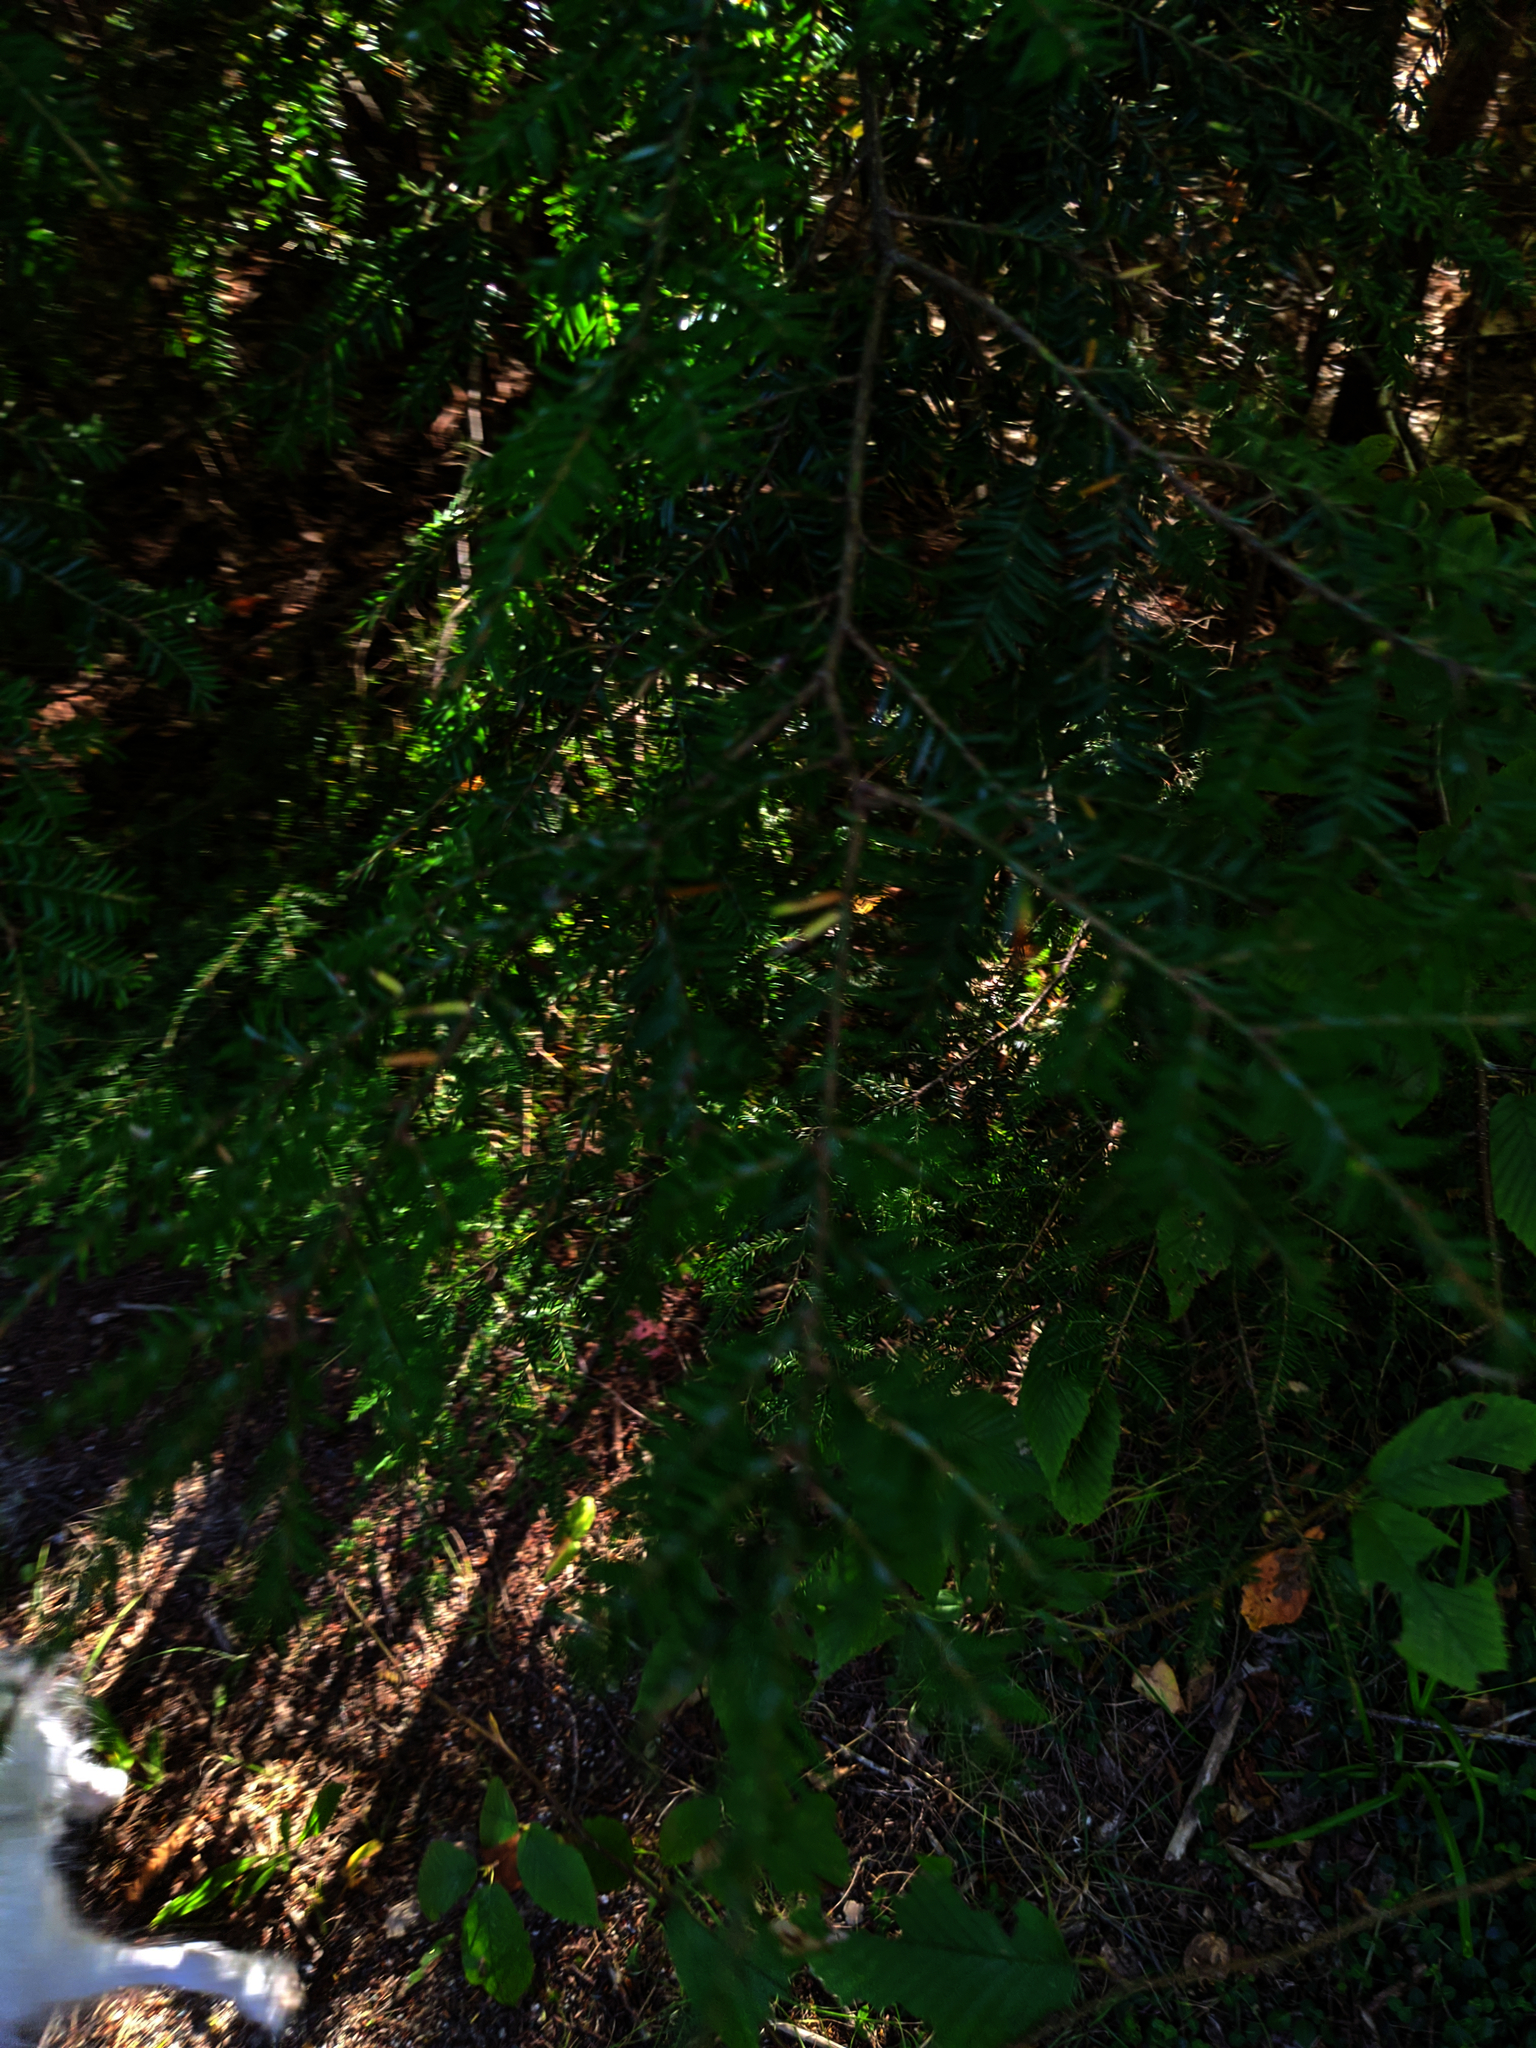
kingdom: Plantae
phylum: Tracheophyta
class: Pinopsida
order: Pinales
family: Pinaceae
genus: Tsuga
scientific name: Tsuga canadensis
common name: Eastern hemlock
